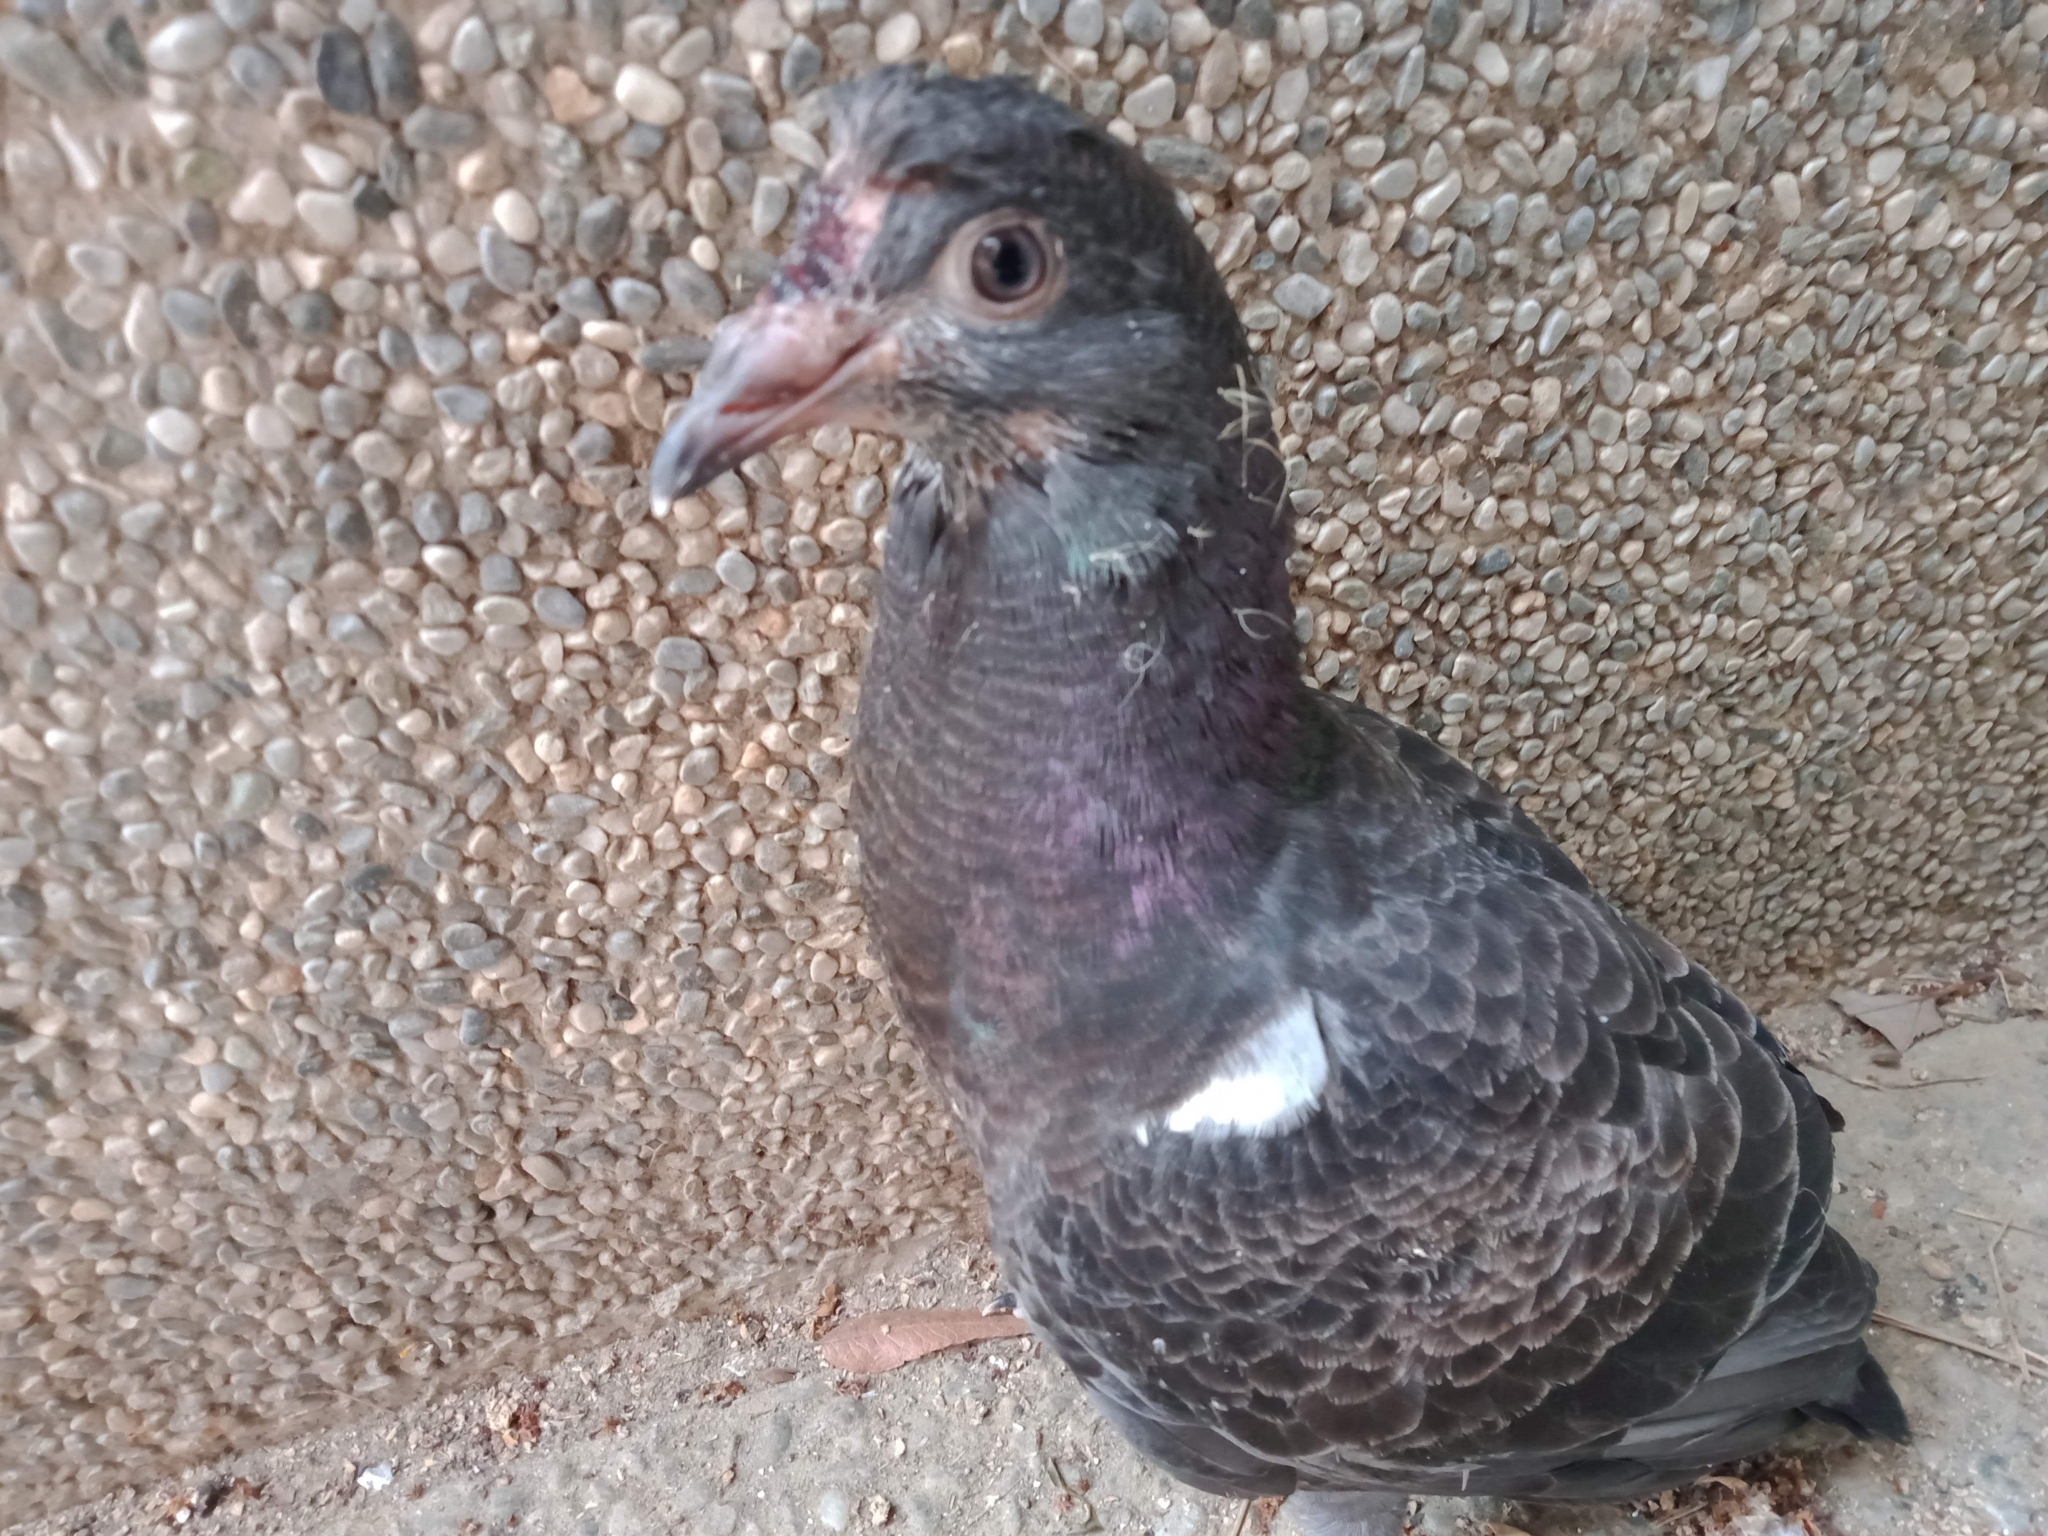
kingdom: Animalia
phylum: Chordata
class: Aves
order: Columbiformes
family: Columbidae
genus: Columba
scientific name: Columba livia
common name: Rock pigeon
